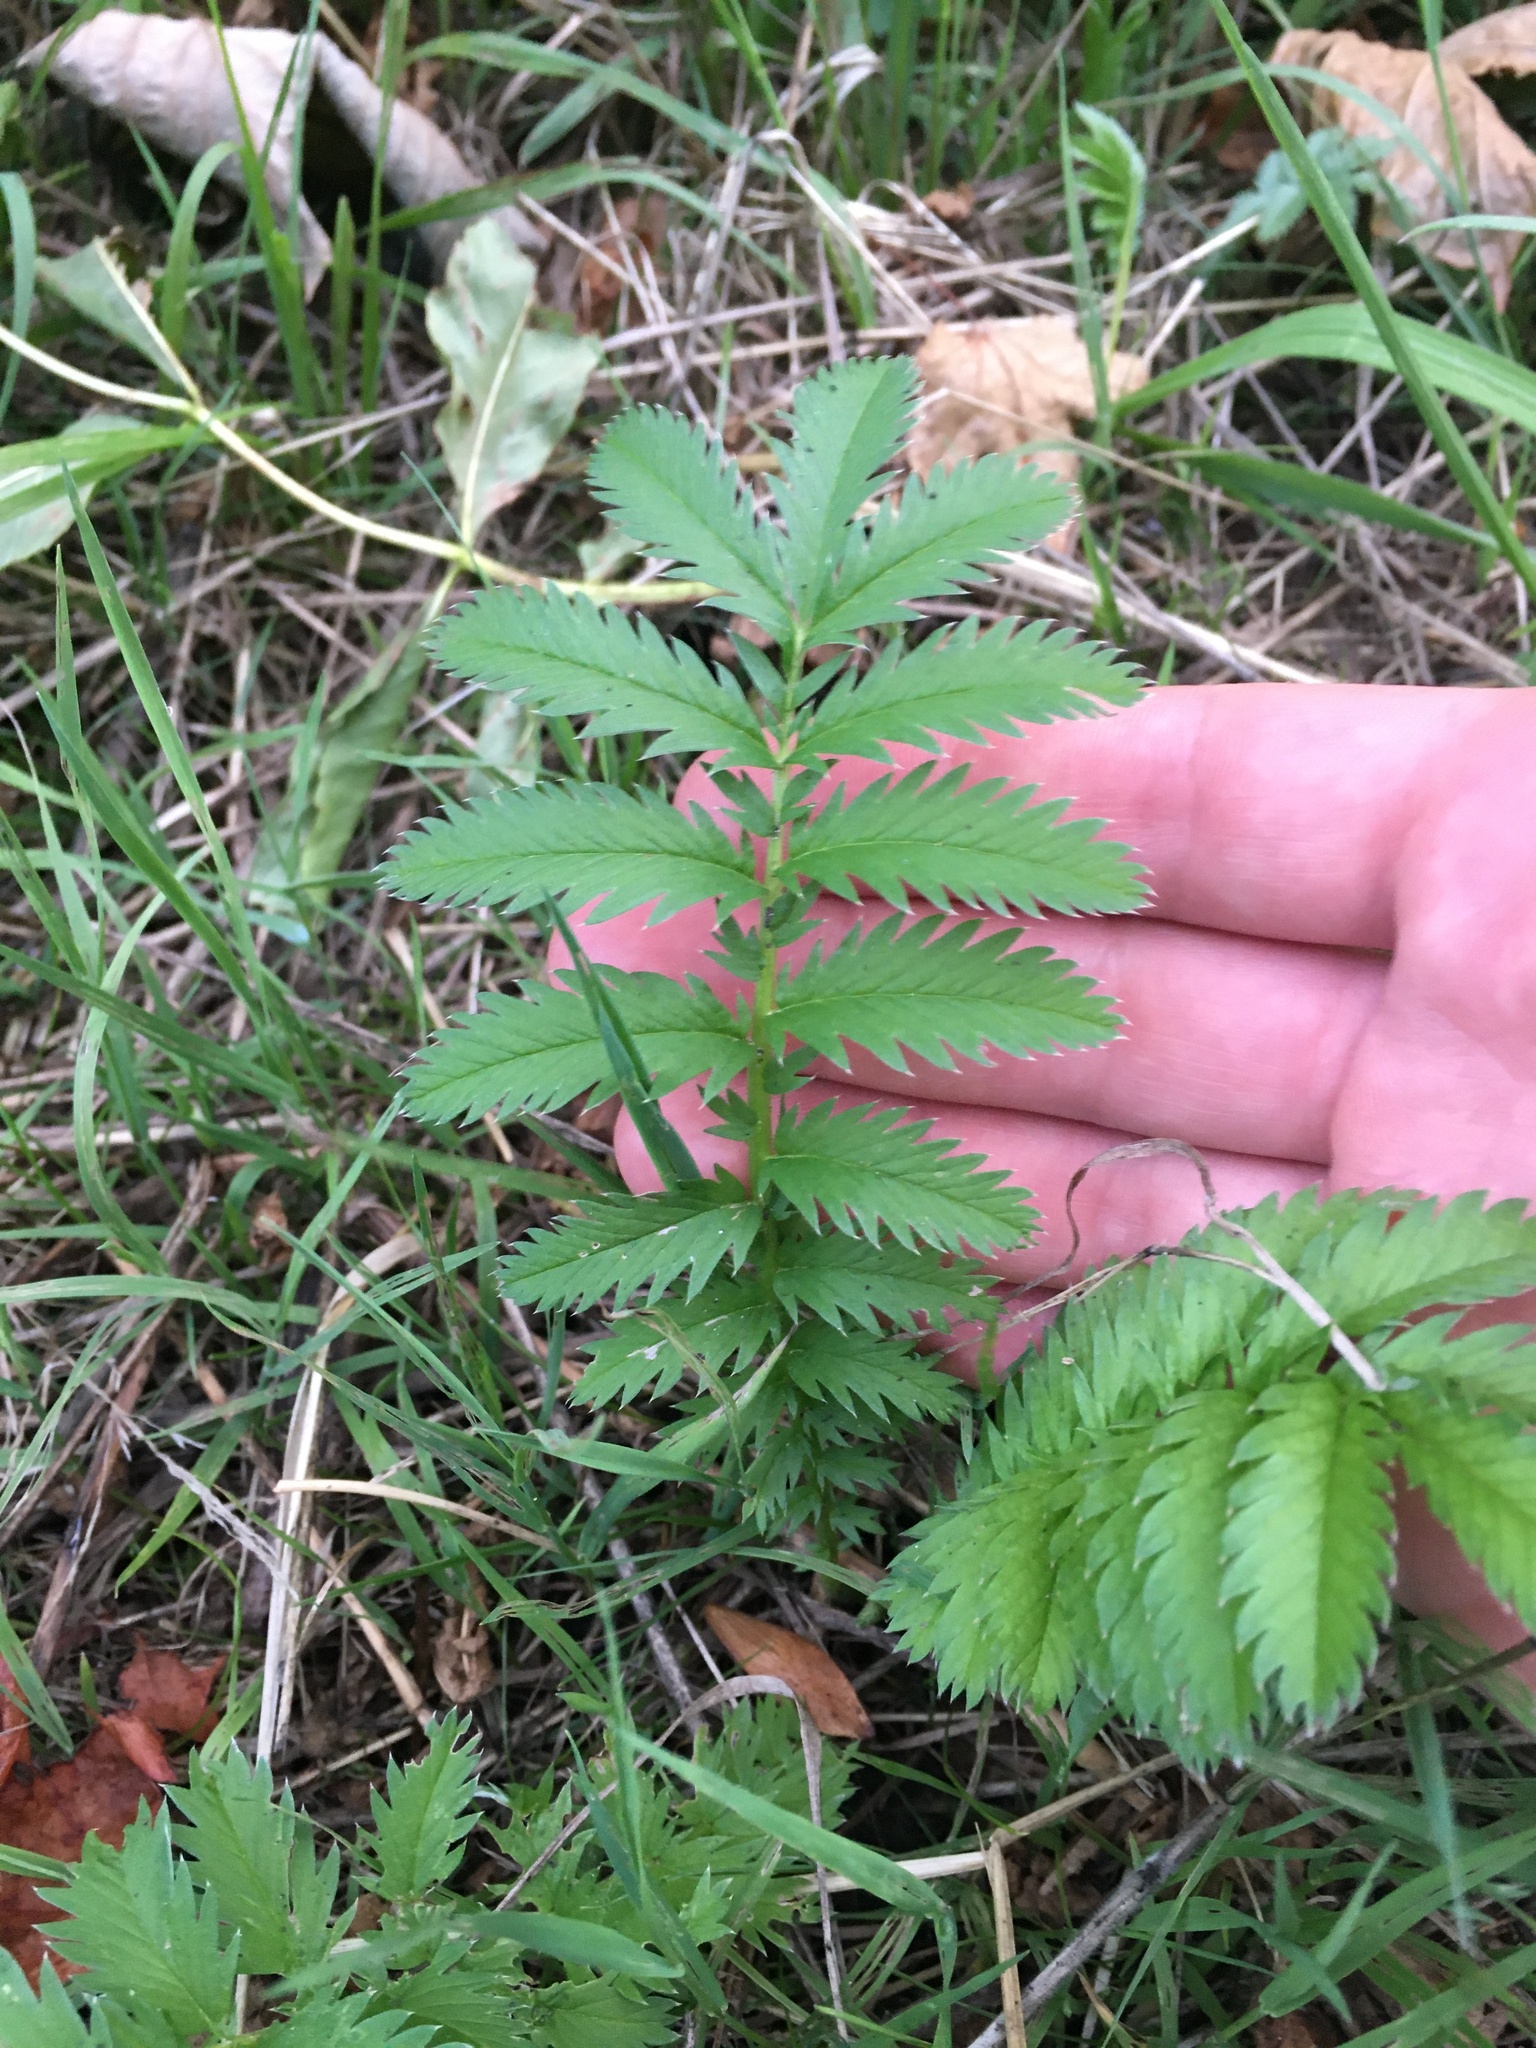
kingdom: Plantae
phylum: Tracheophyta
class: Magnoliopsida
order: Rosales
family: Rosaceae
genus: Argentina
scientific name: Argentina anserina
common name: Common silverweed
